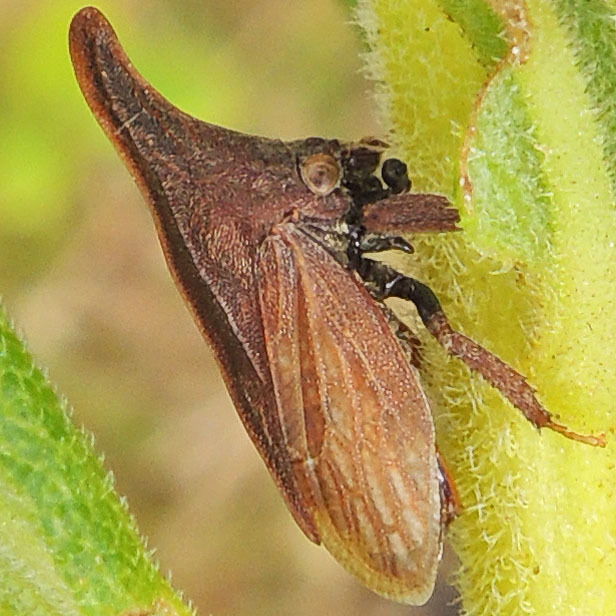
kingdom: Animalia
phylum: Arthropoda
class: Insecta
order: Hemiptera
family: Membracidae
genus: Enchenopa
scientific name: Enchenopa latipes
